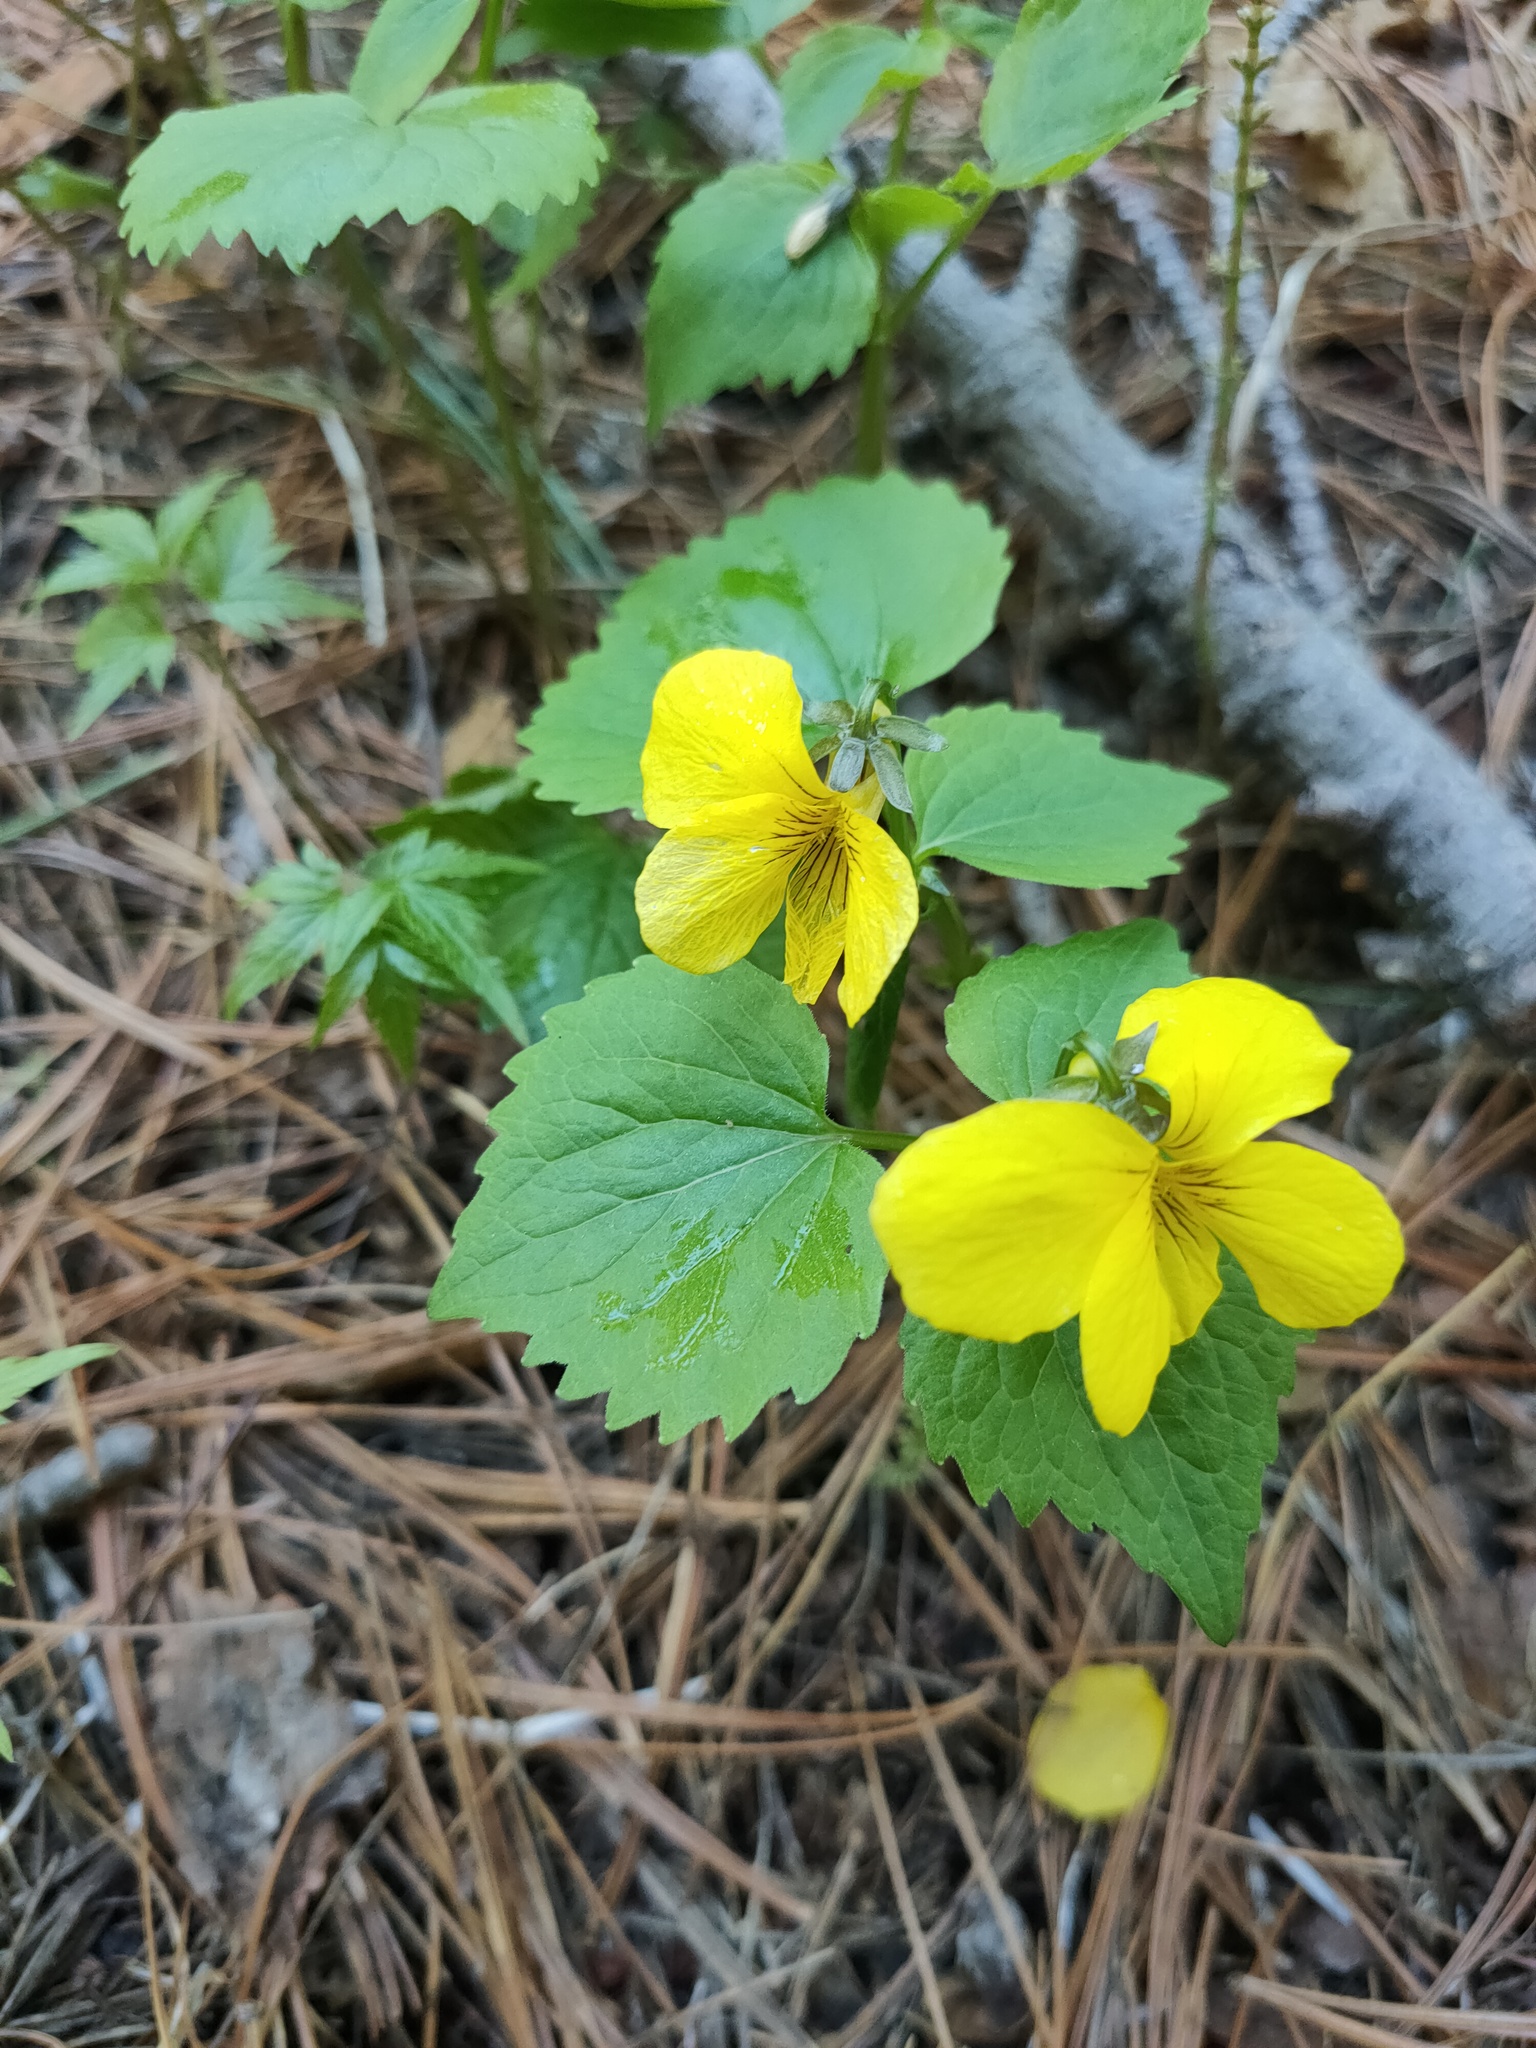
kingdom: Plantae
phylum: Tracheophyta
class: Magnoliopsida
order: Malpighiales
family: Violaceae
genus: Viola
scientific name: Viola uniflora
